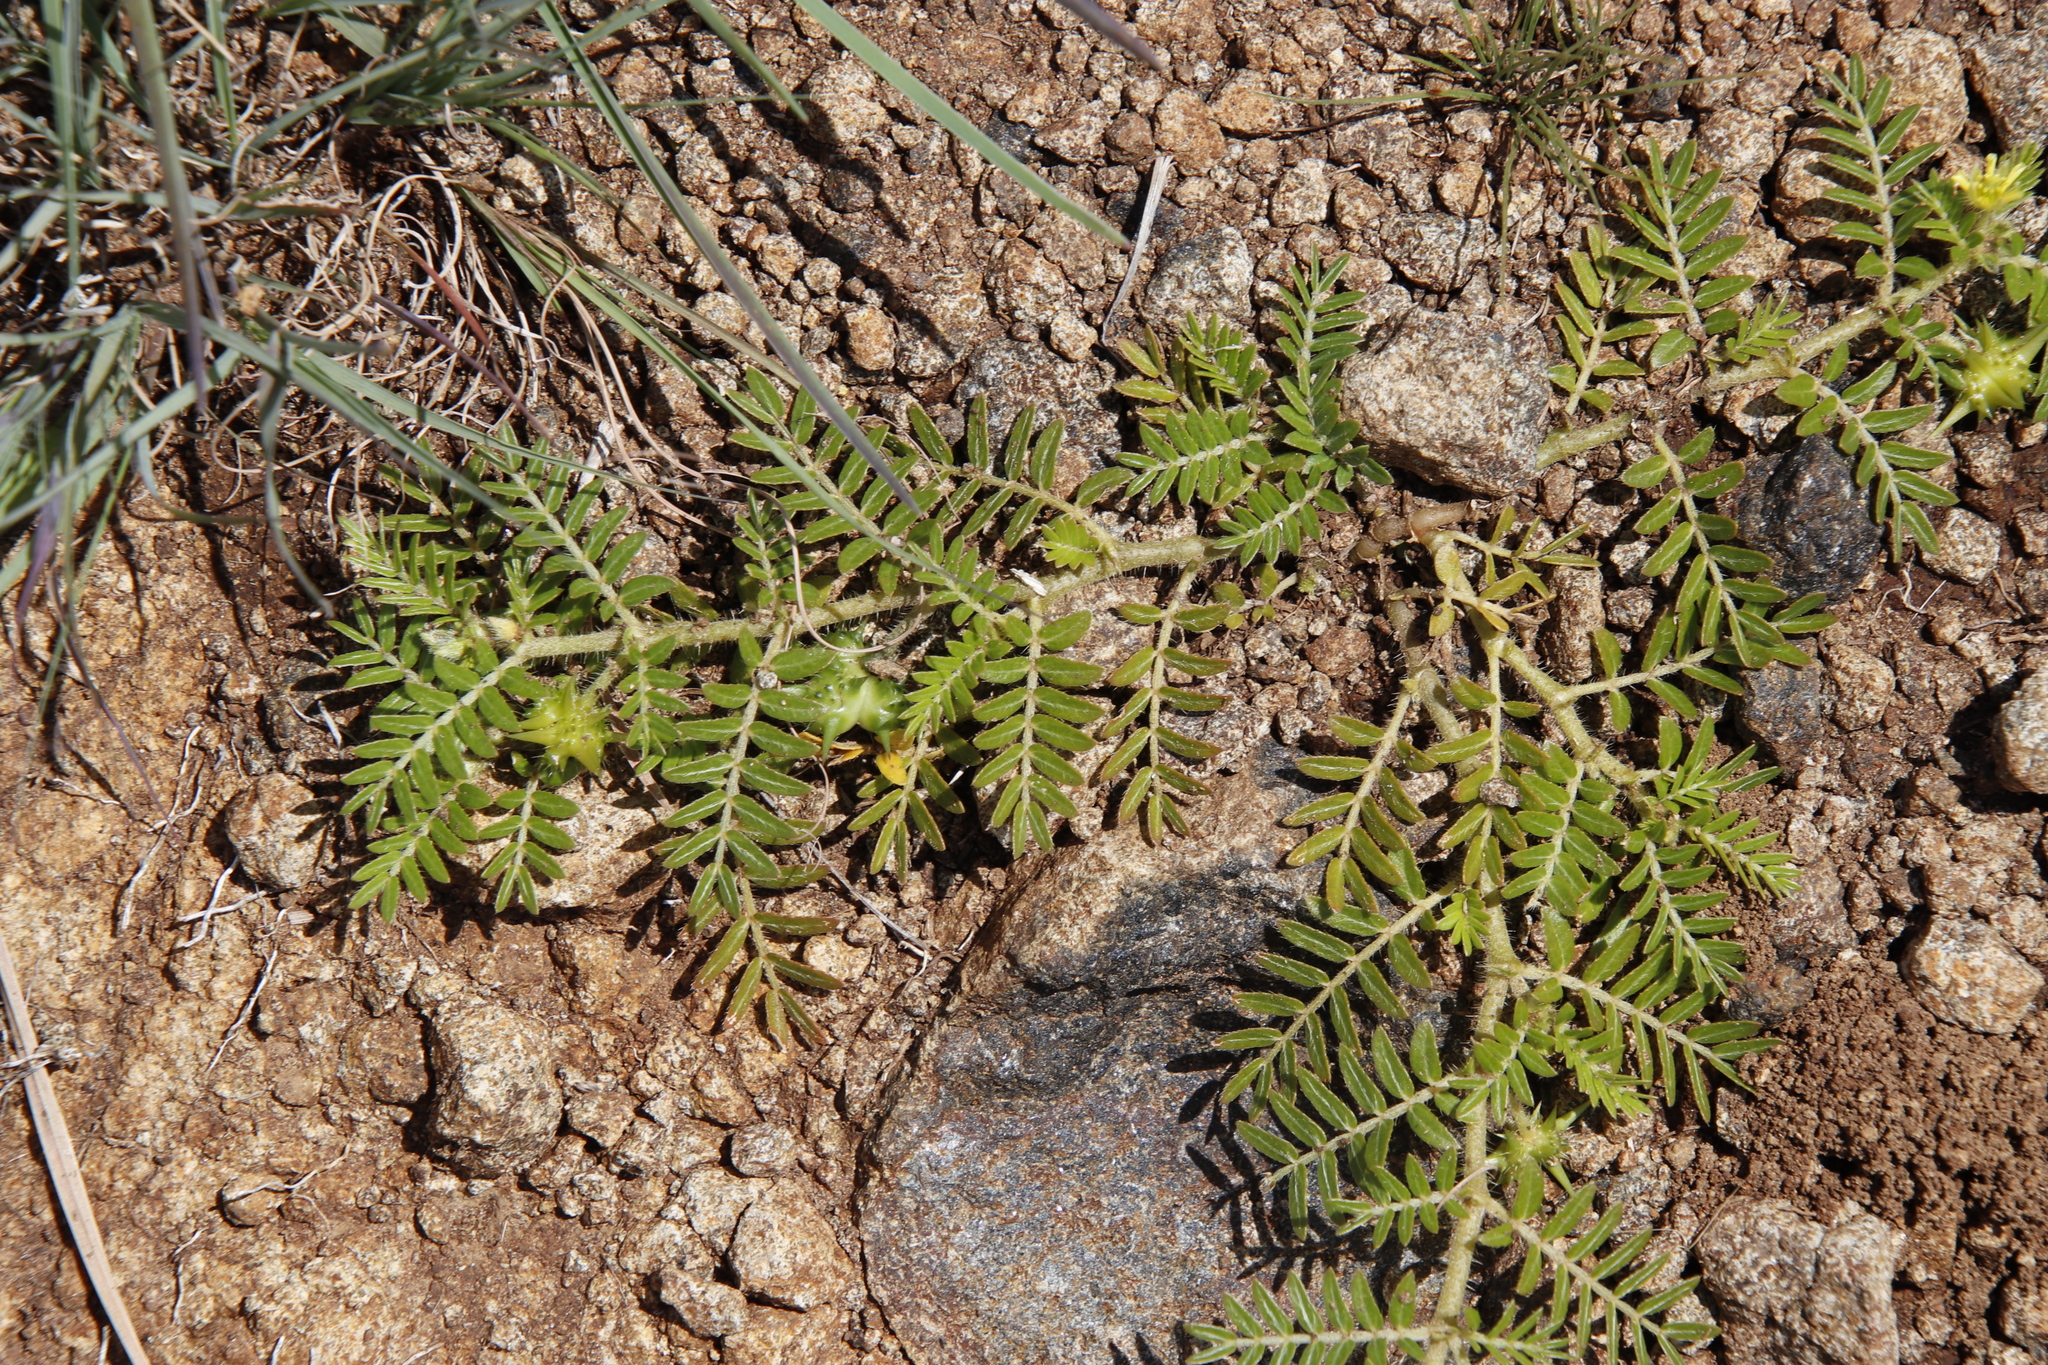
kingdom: Plantae
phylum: Tracheophyta
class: Magnoliopsida
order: Zygophyllales
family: Zygophyllaceae
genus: Tribulus
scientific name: Tribulus terrestris
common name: Puncturevine
